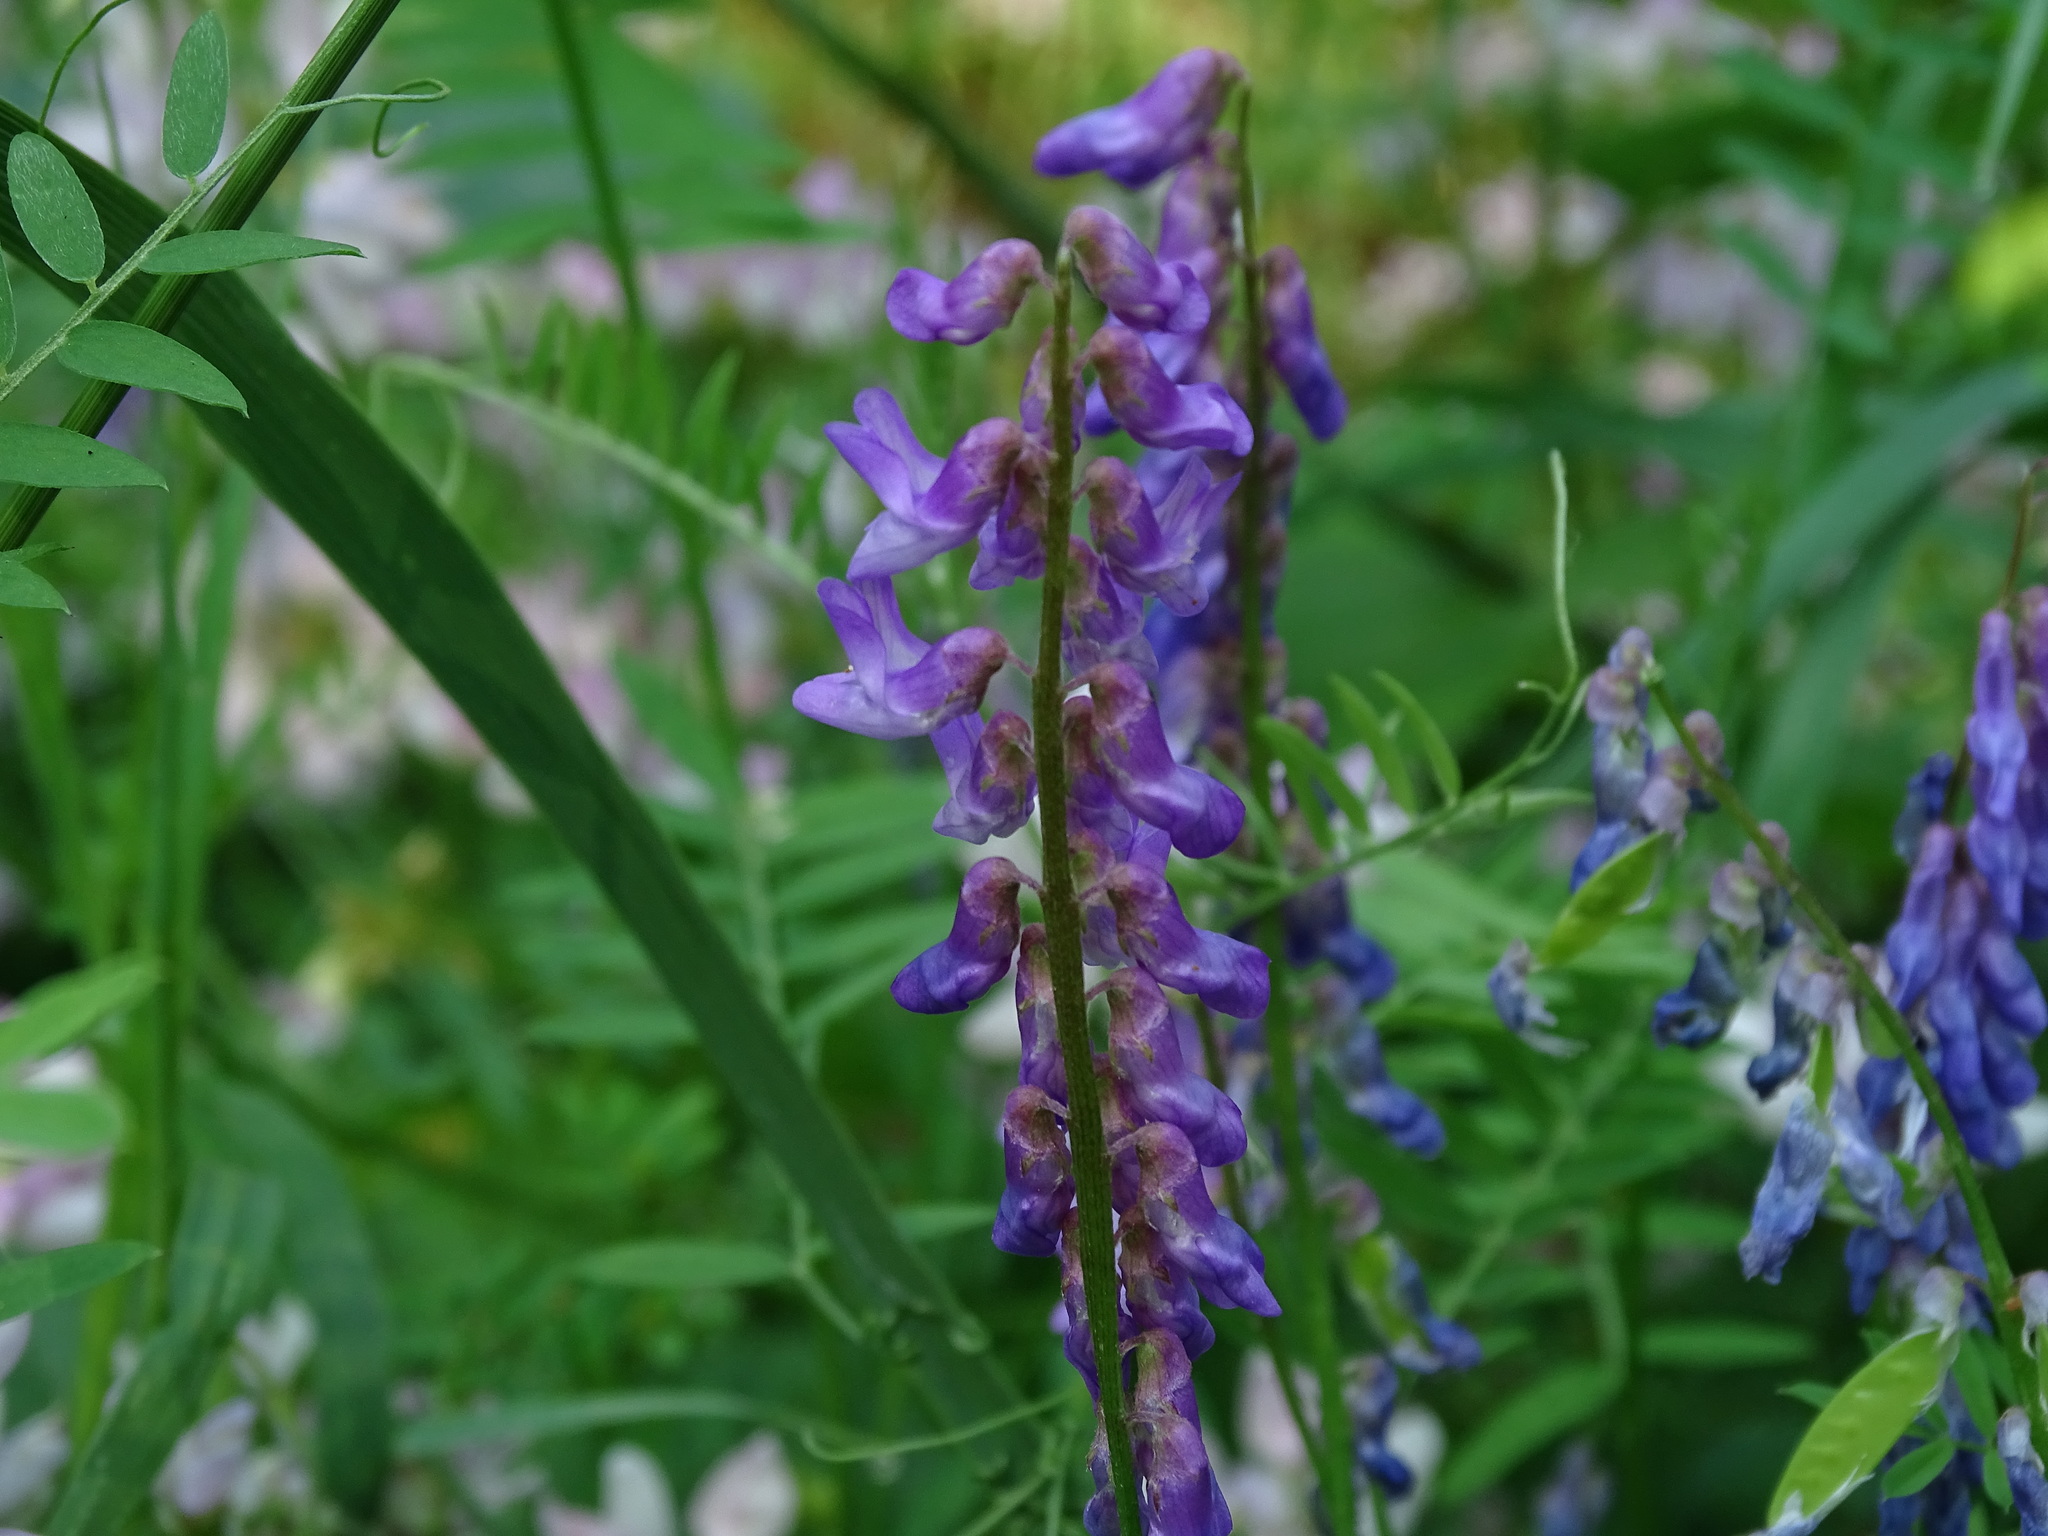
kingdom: Plantae
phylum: Tracheophyta
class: Magnoliopsida
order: Fabales
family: Fabaceae
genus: Vicia
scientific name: Vicia cracca
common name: Bird vetch
